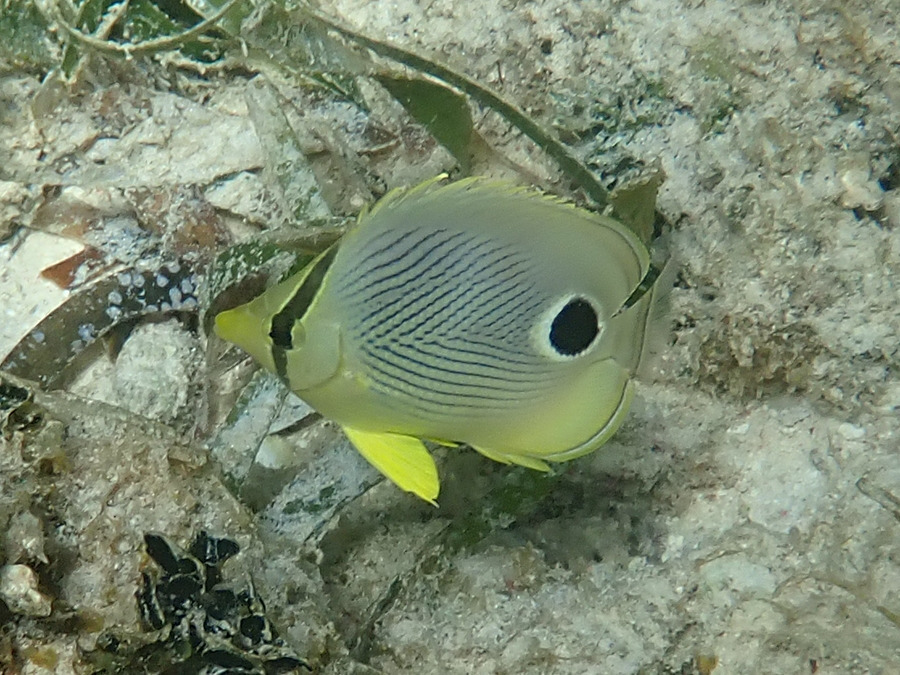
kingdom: Animalia
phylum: Chordata
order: Perciformes
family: Chaetodontidae
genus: Chaetodon
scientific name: Chaetodon capistratus
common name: Kete
